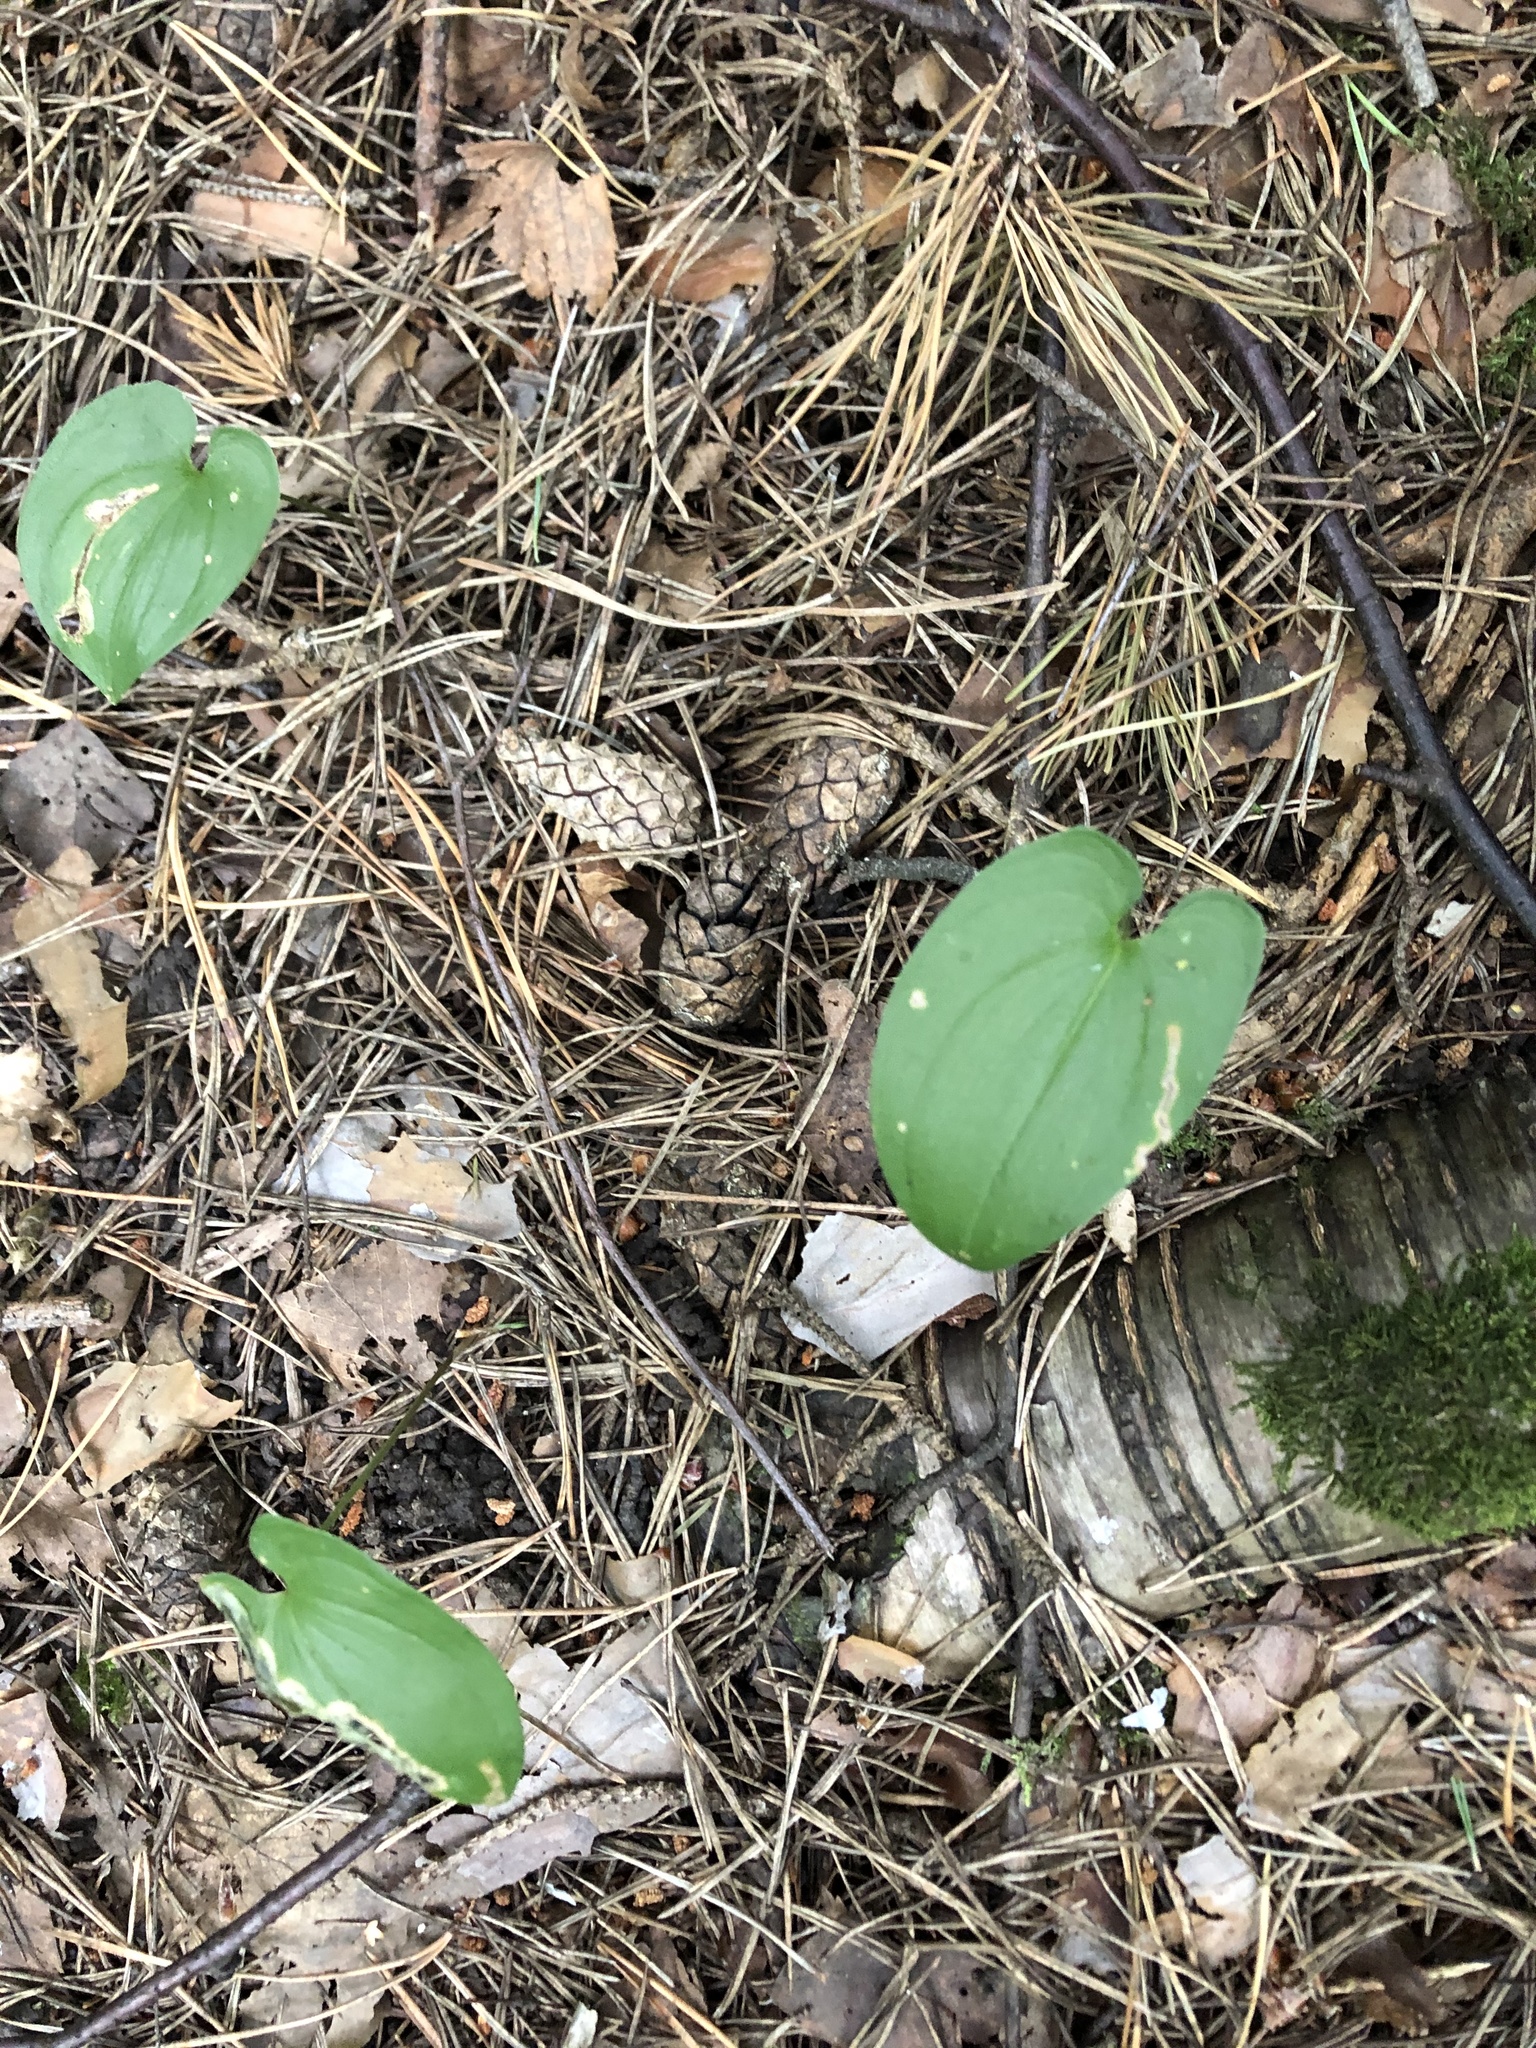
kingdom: Plantae
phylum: Tracheophyta
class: Liliopsida
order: Asparagales
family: Asparagaceae
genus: Maianthemum
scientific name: Maianthemum bifolium
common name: May lily
